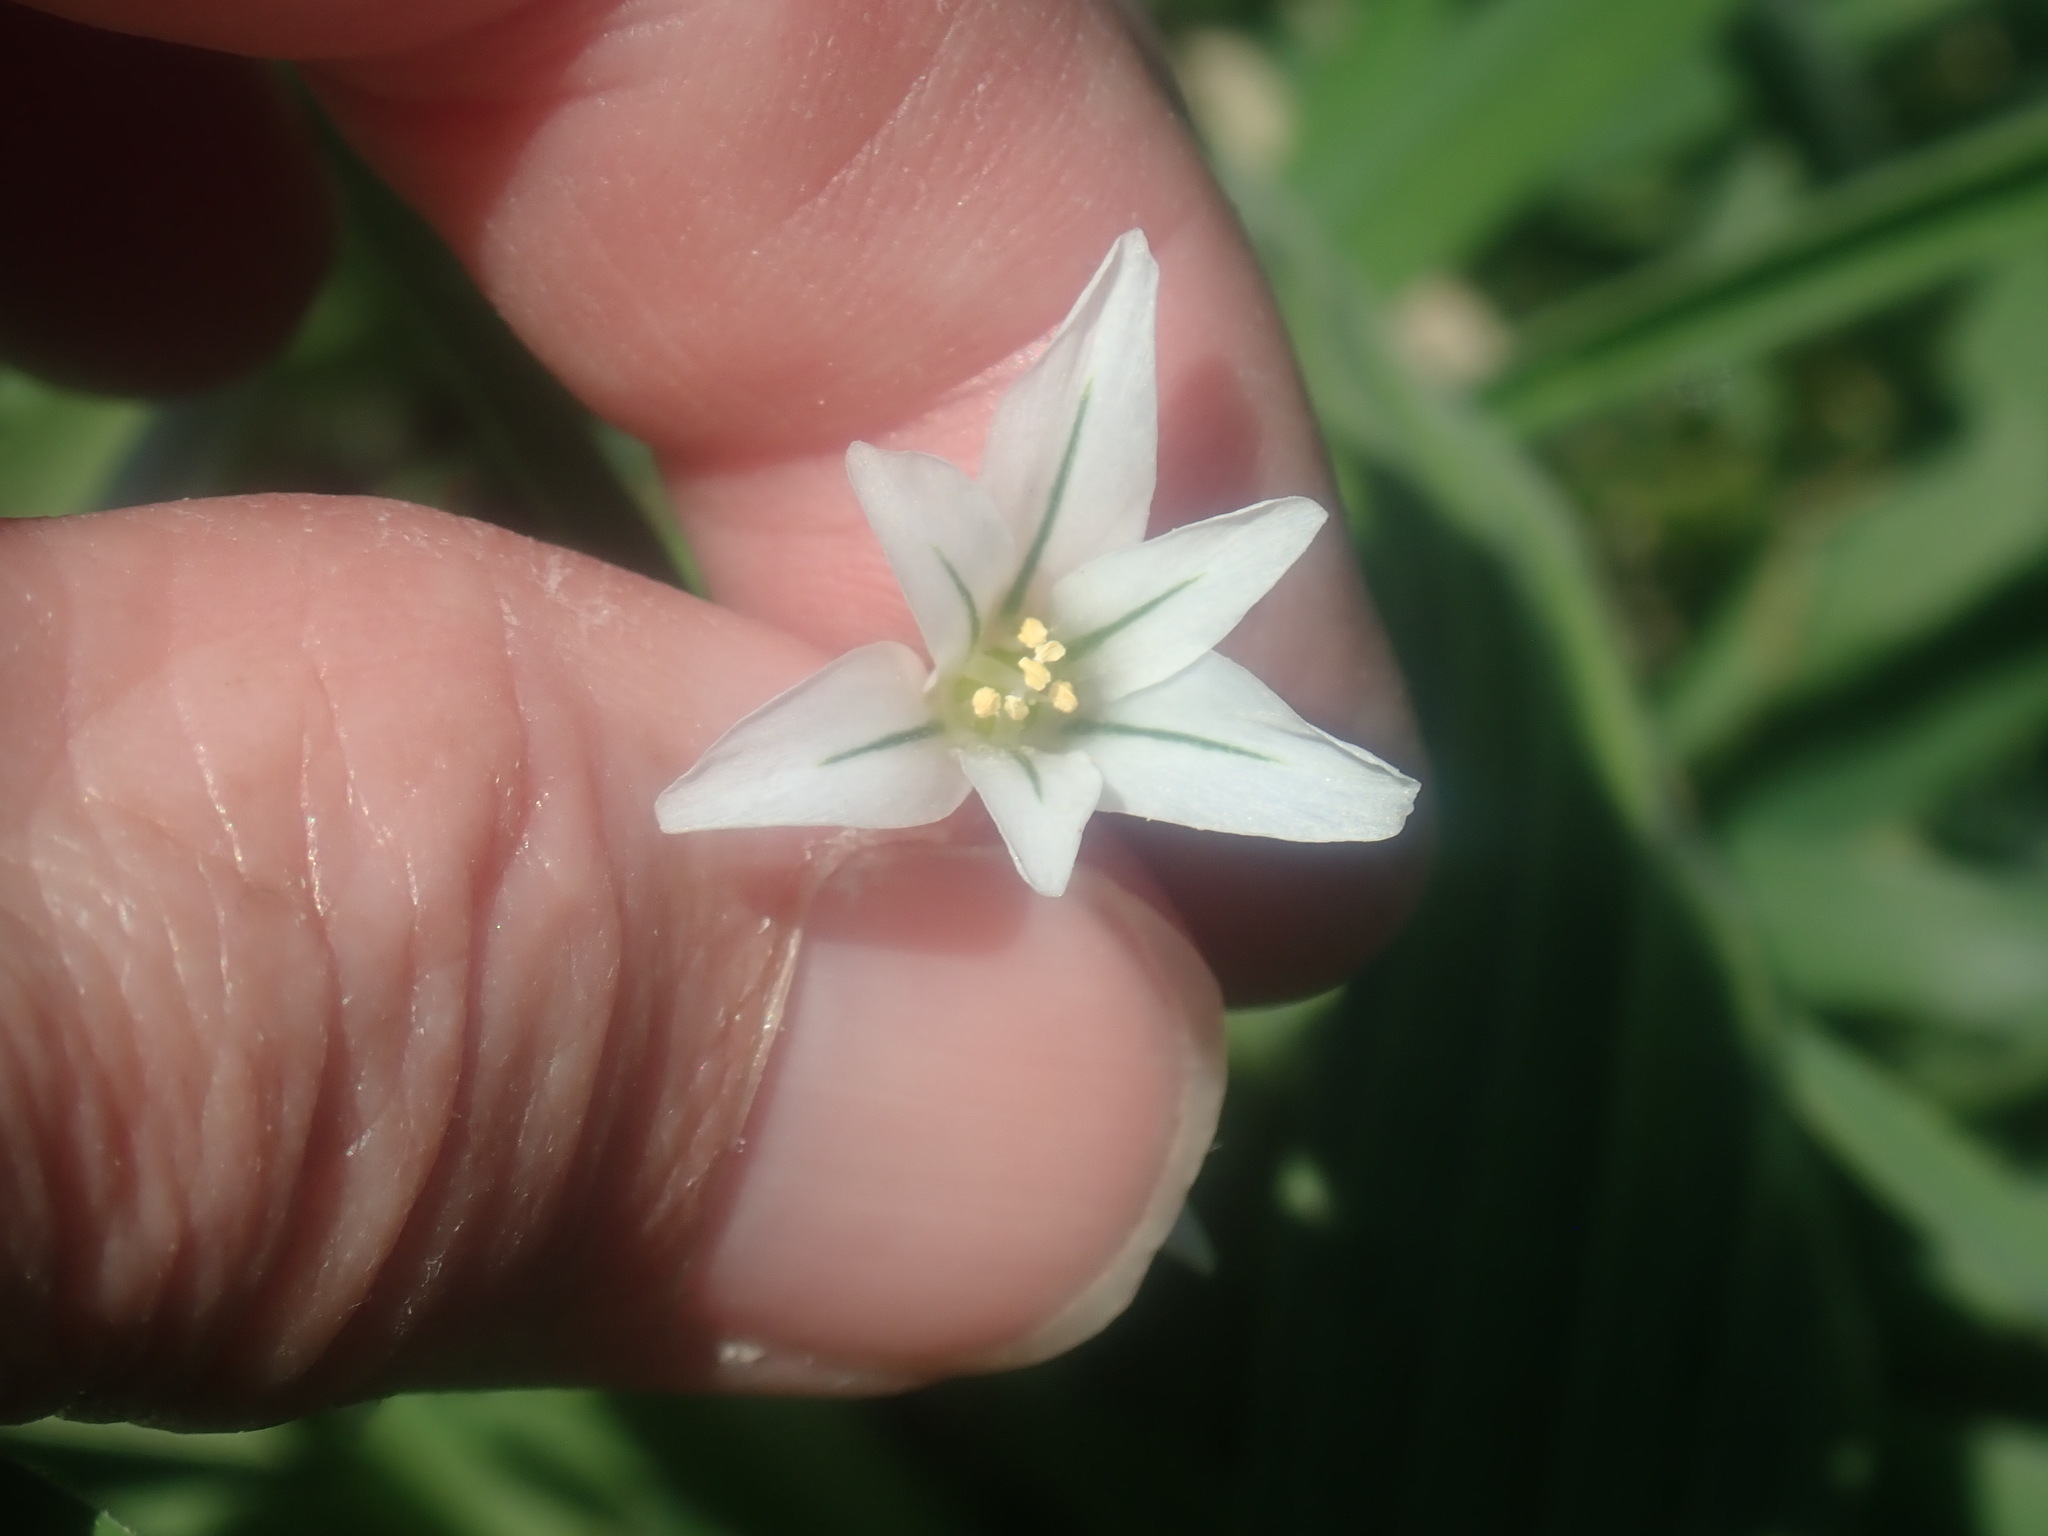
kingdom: Plantae
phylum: Tracheophyta
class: Liliopsida
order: Asparagales
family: Amaryllidaceae
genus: Allium
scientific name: Allium triquetrum
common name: Three-cornered garlic
